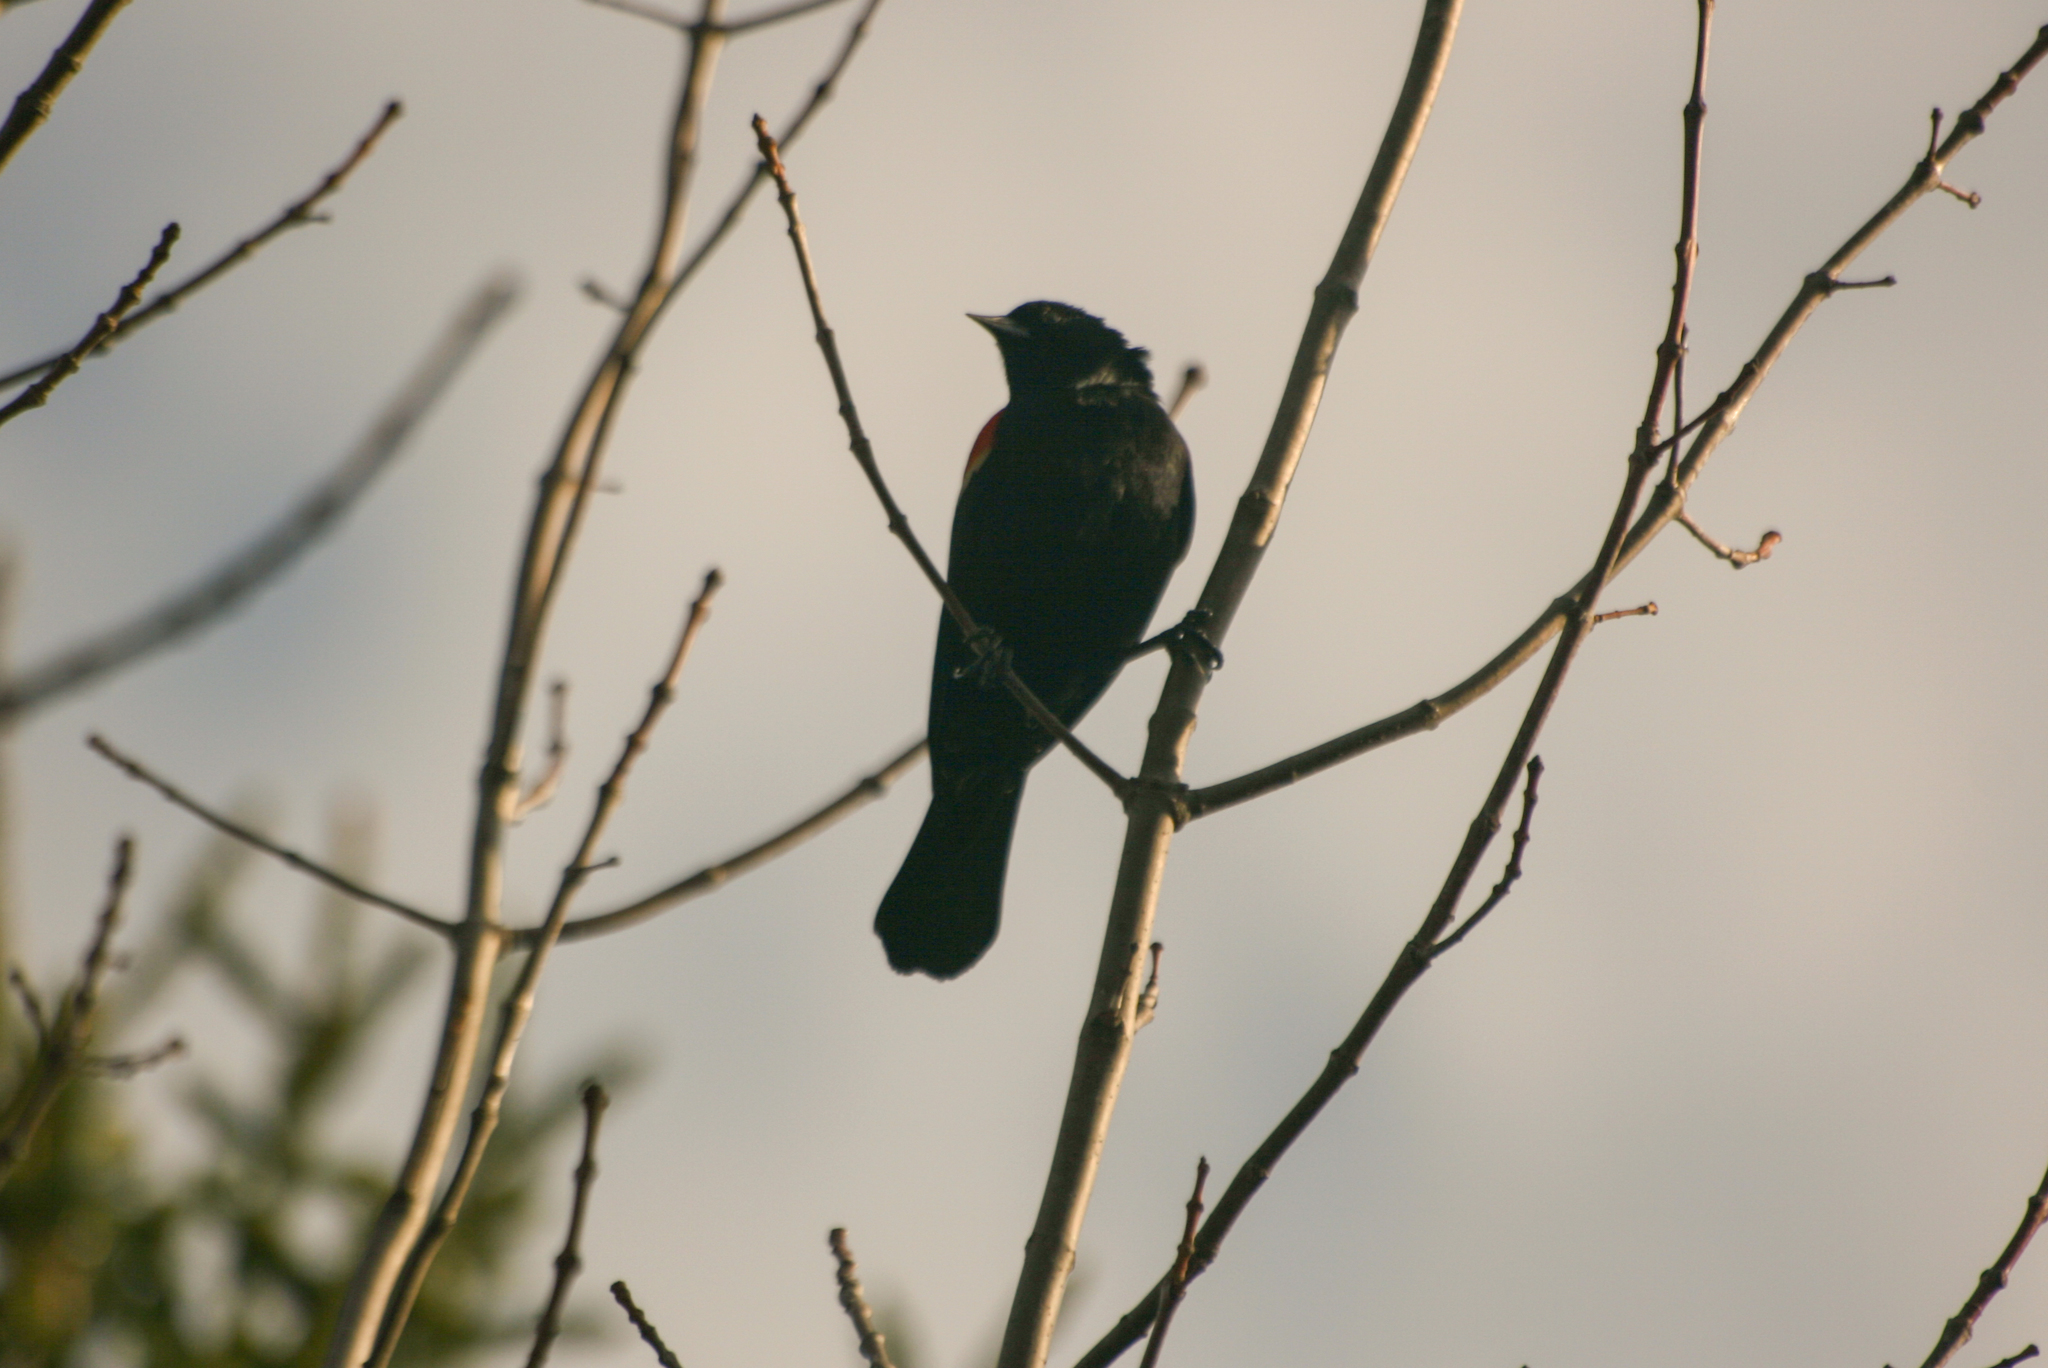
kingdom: Animalia
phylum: Chordata
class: Aves
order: Passeriformes
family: Icteridae
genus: Agelaius
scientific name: Agelaius phoeniceus
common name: Red-winged blackbird
